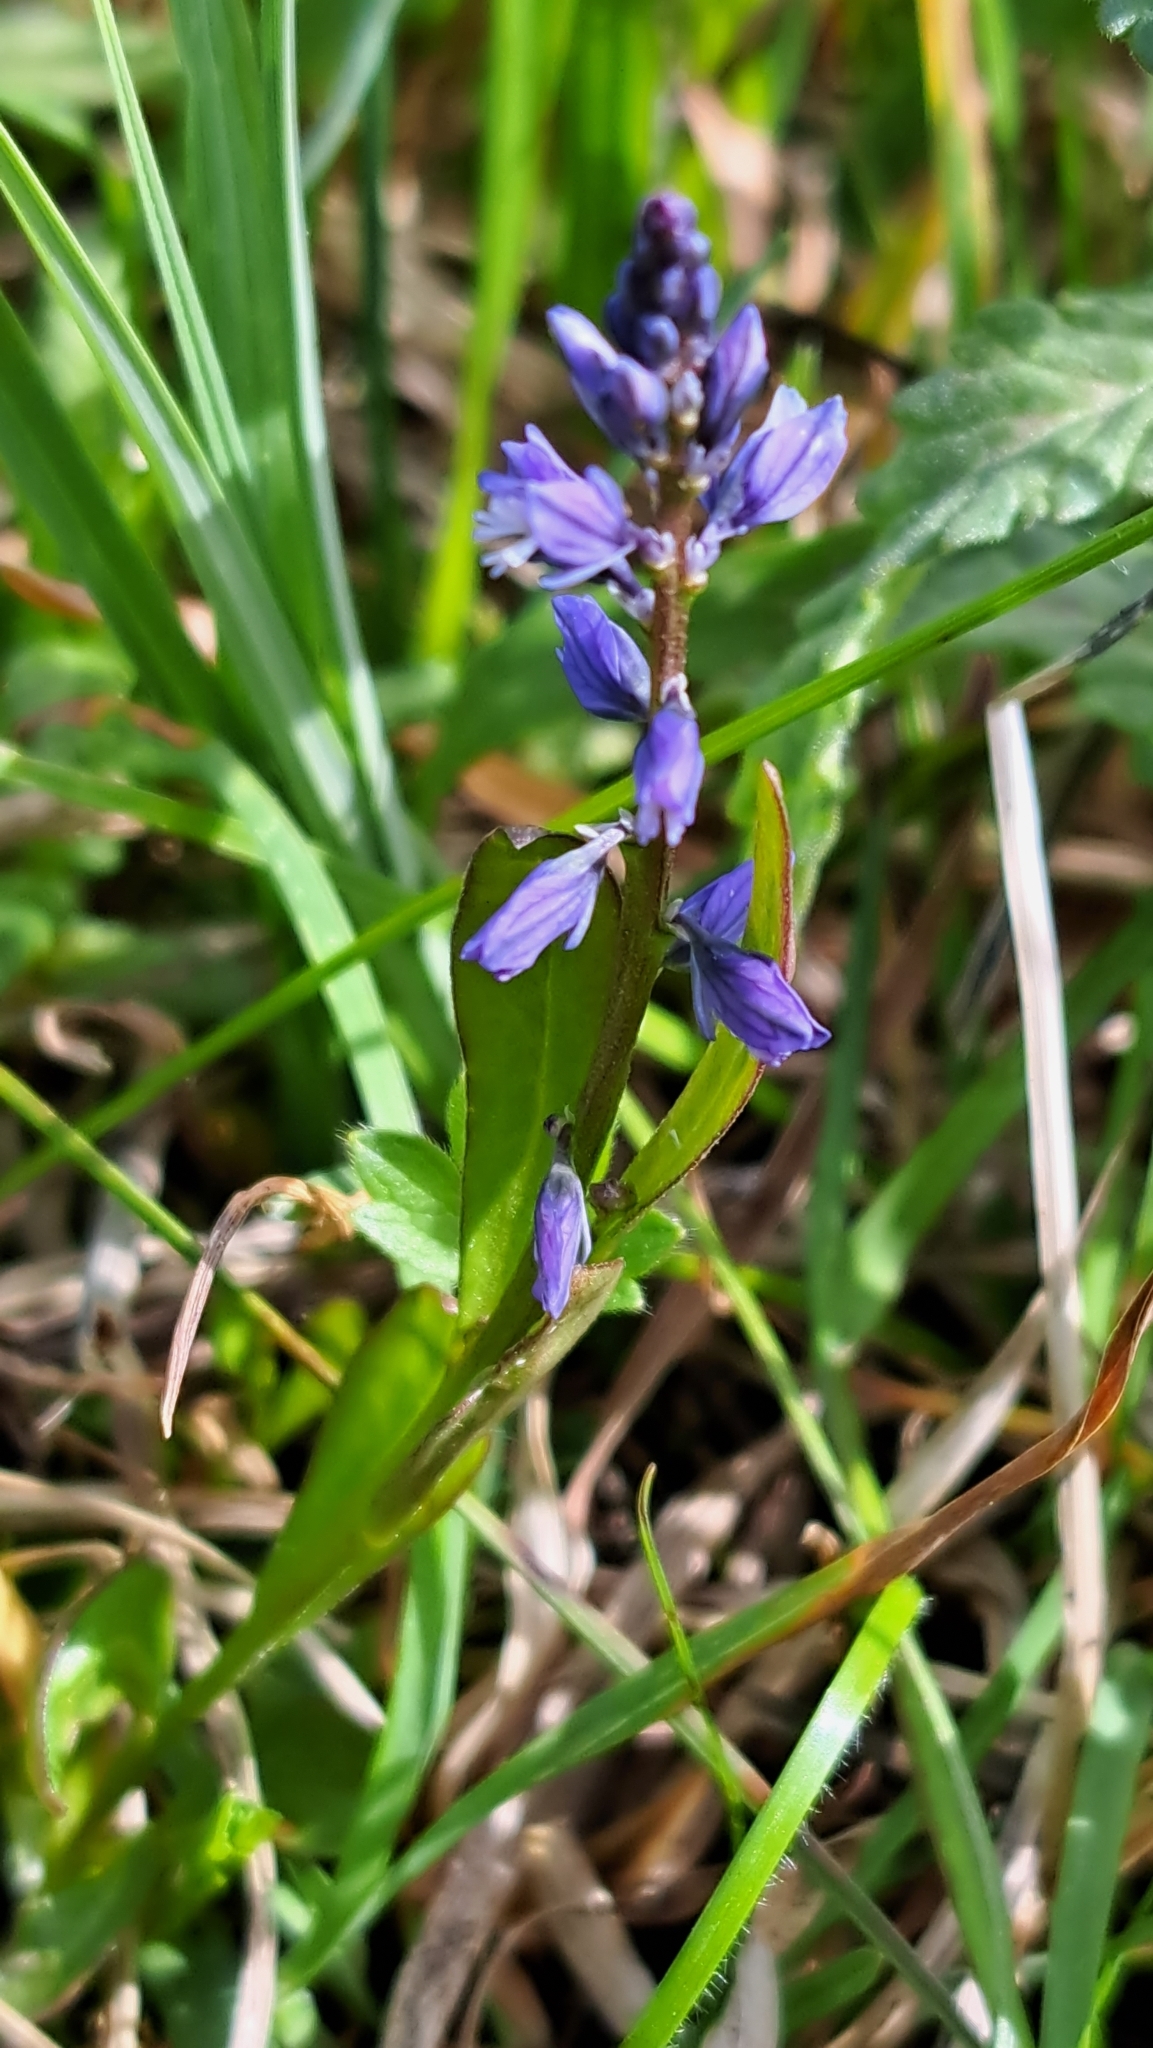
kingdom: Plantae
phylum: Tracheophyta
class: Magnoliopsida
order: Fabales
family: Polygalaceae
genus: Polygala
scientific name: Polygala vulgaris
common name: Common milkwort
